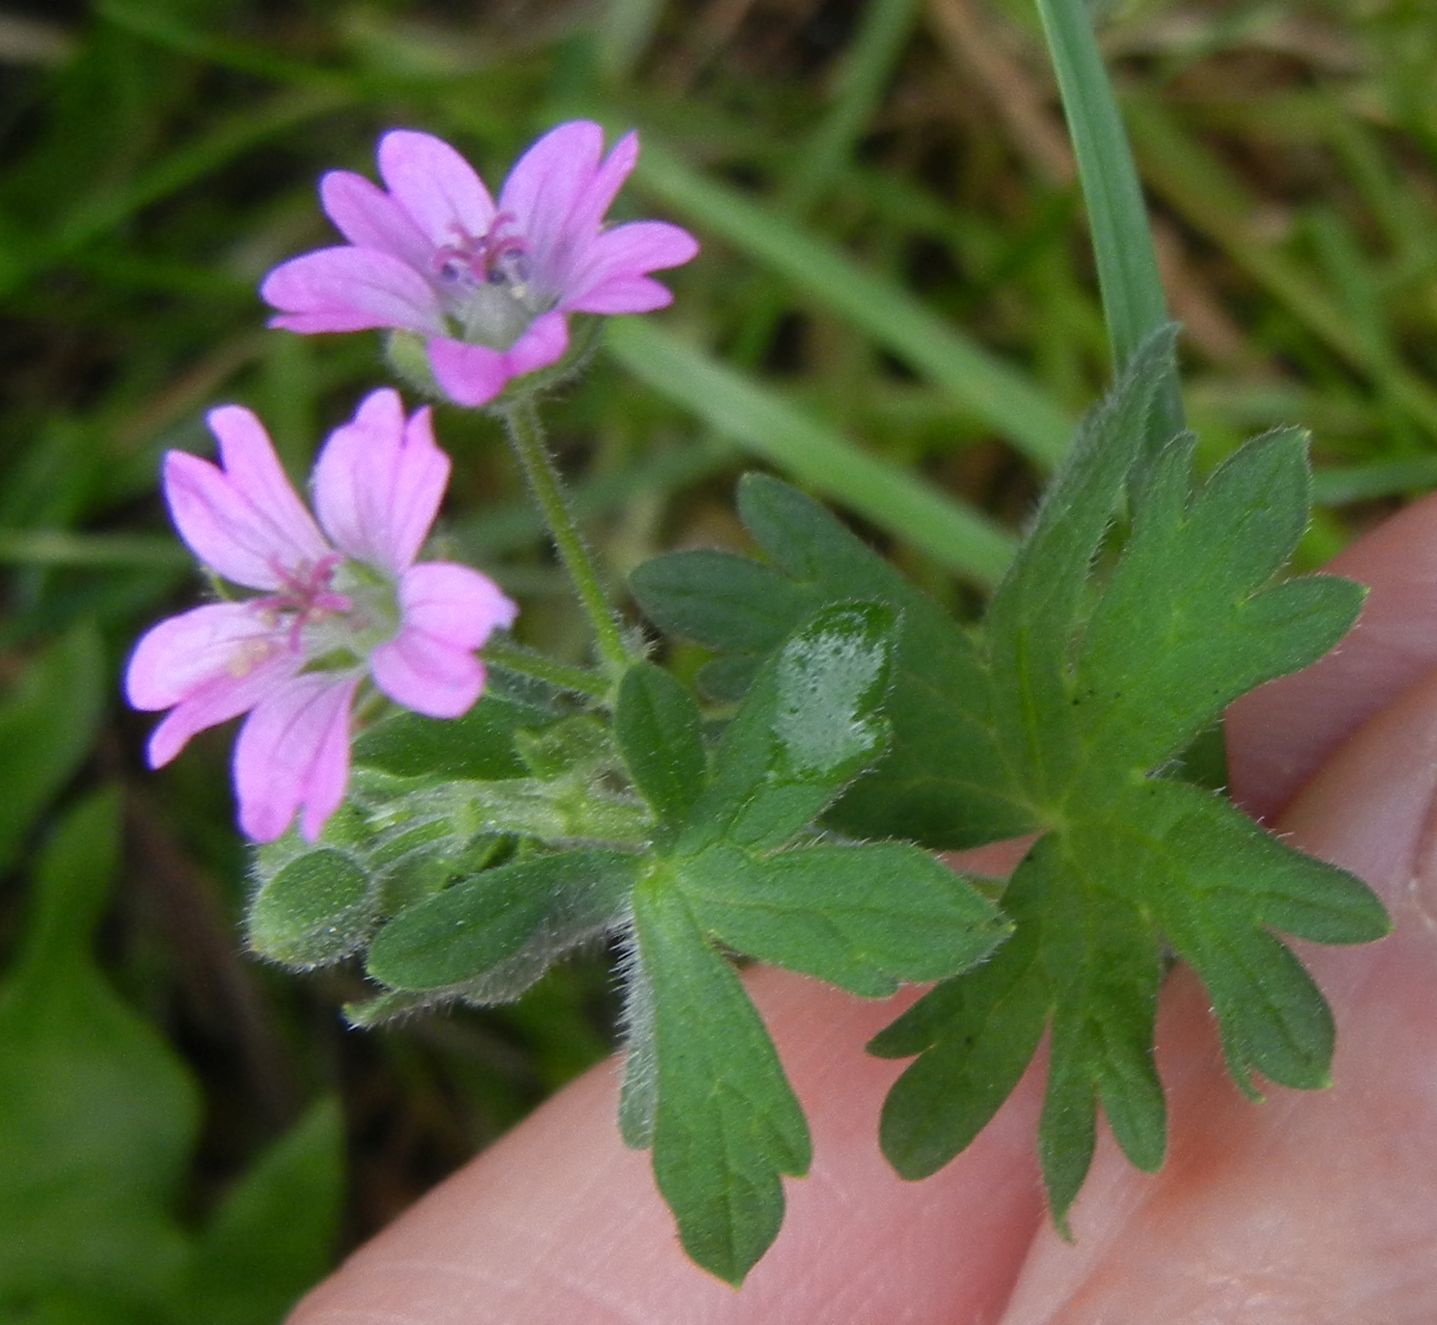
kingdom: Plantae
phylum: Tracheophyta
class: Magnoliopsida
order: Geraniales
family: Geraniaceae
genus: Geranium
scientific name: Geranium molle
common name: Dove's-foot crane's-bill
